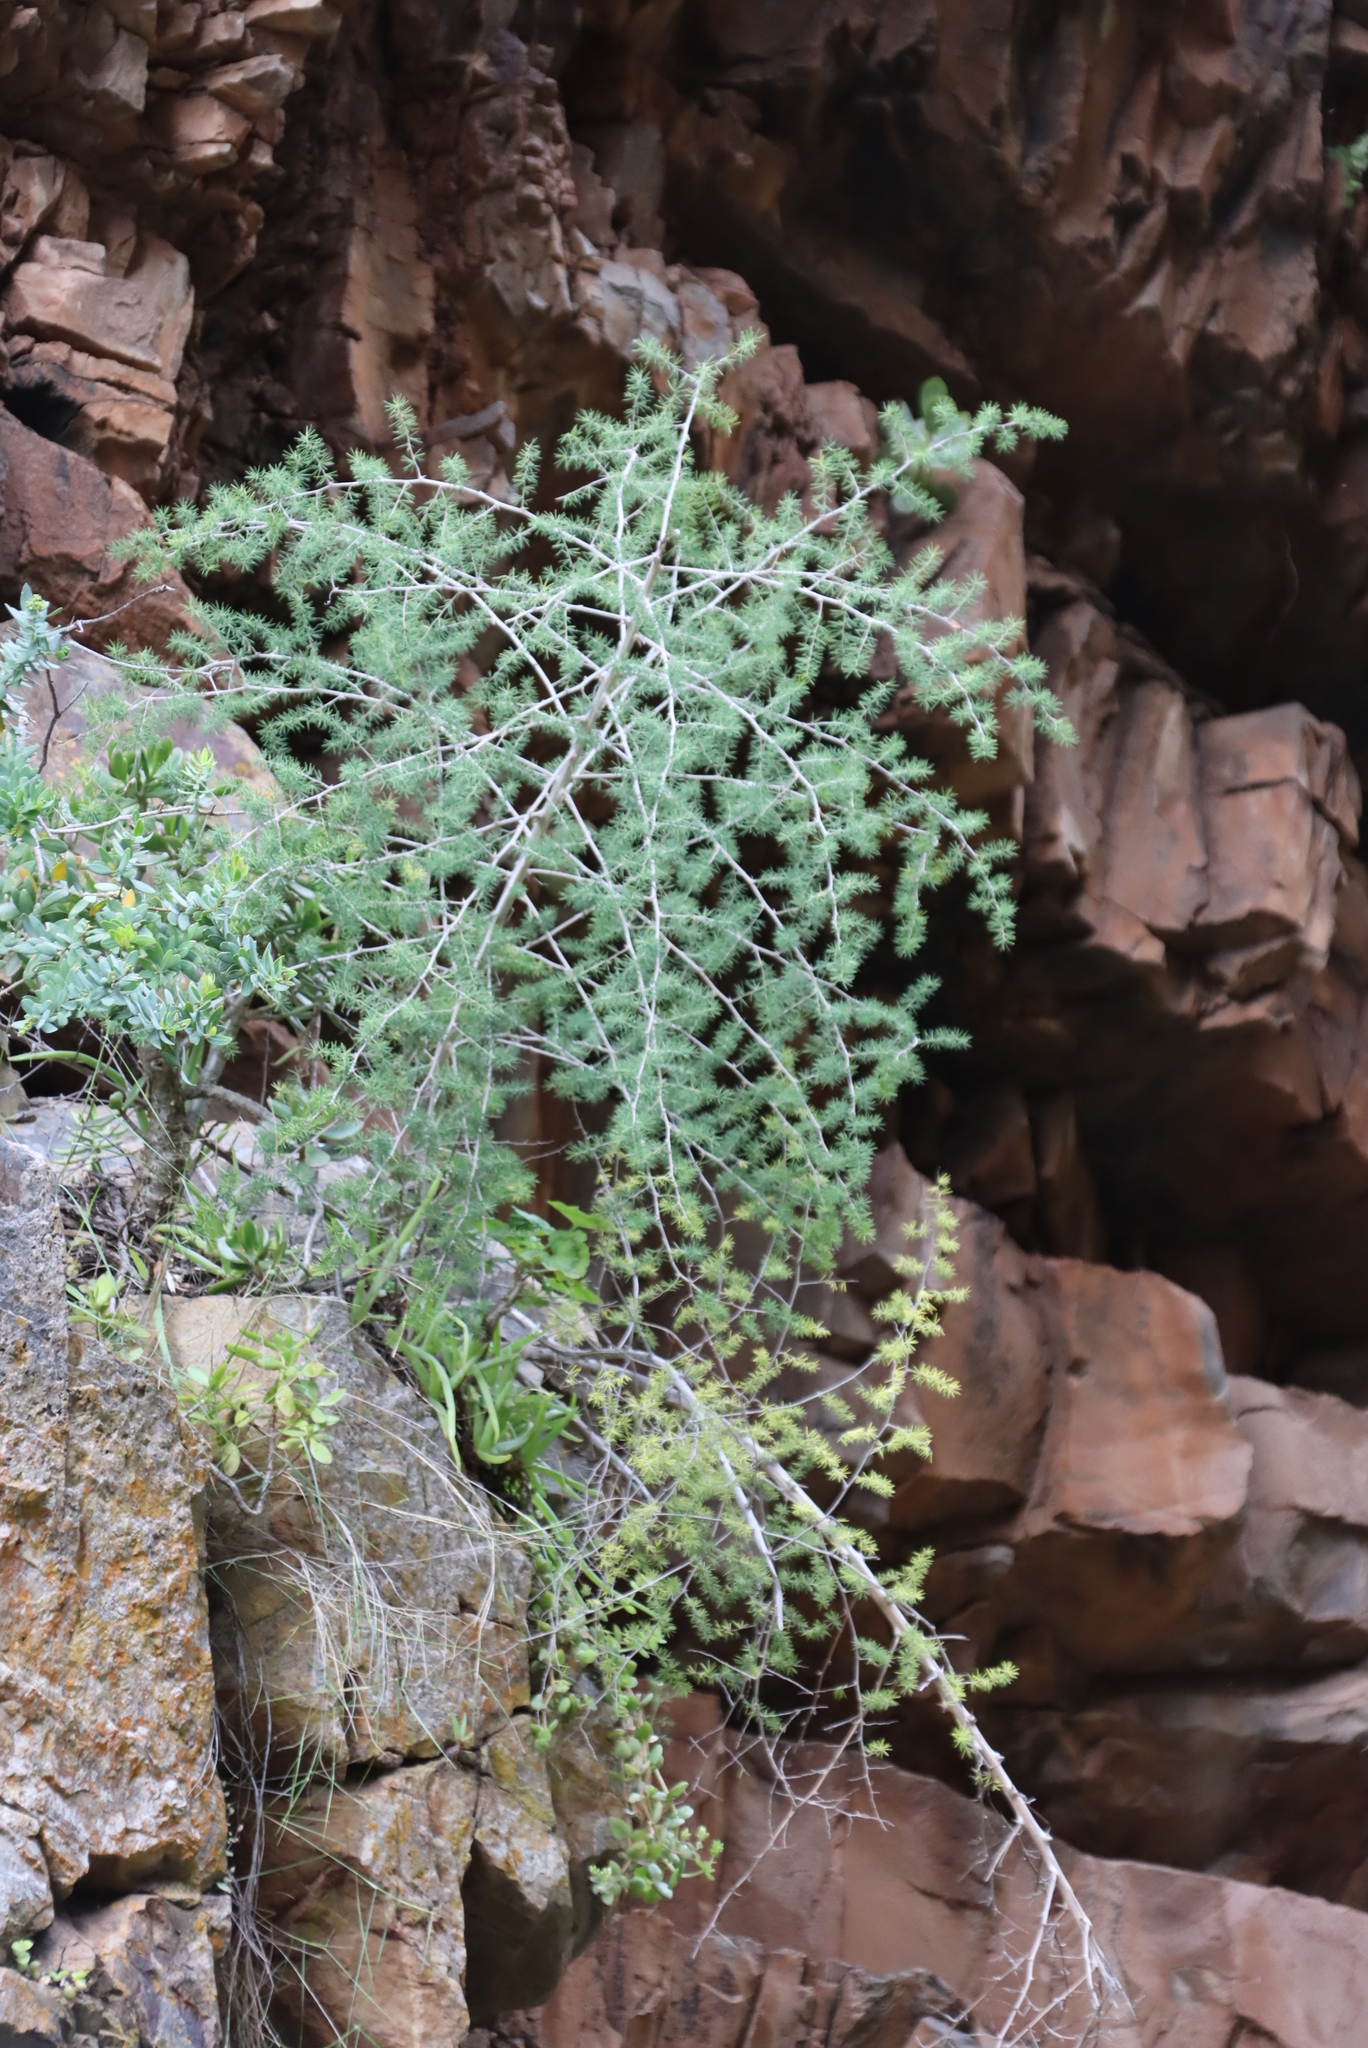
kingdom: Plantae
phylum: Tracheophyta
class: Liliopsida
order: Asparagales
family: Asparagaceae
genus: Asparagus
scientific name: Asparagus mucronatus
